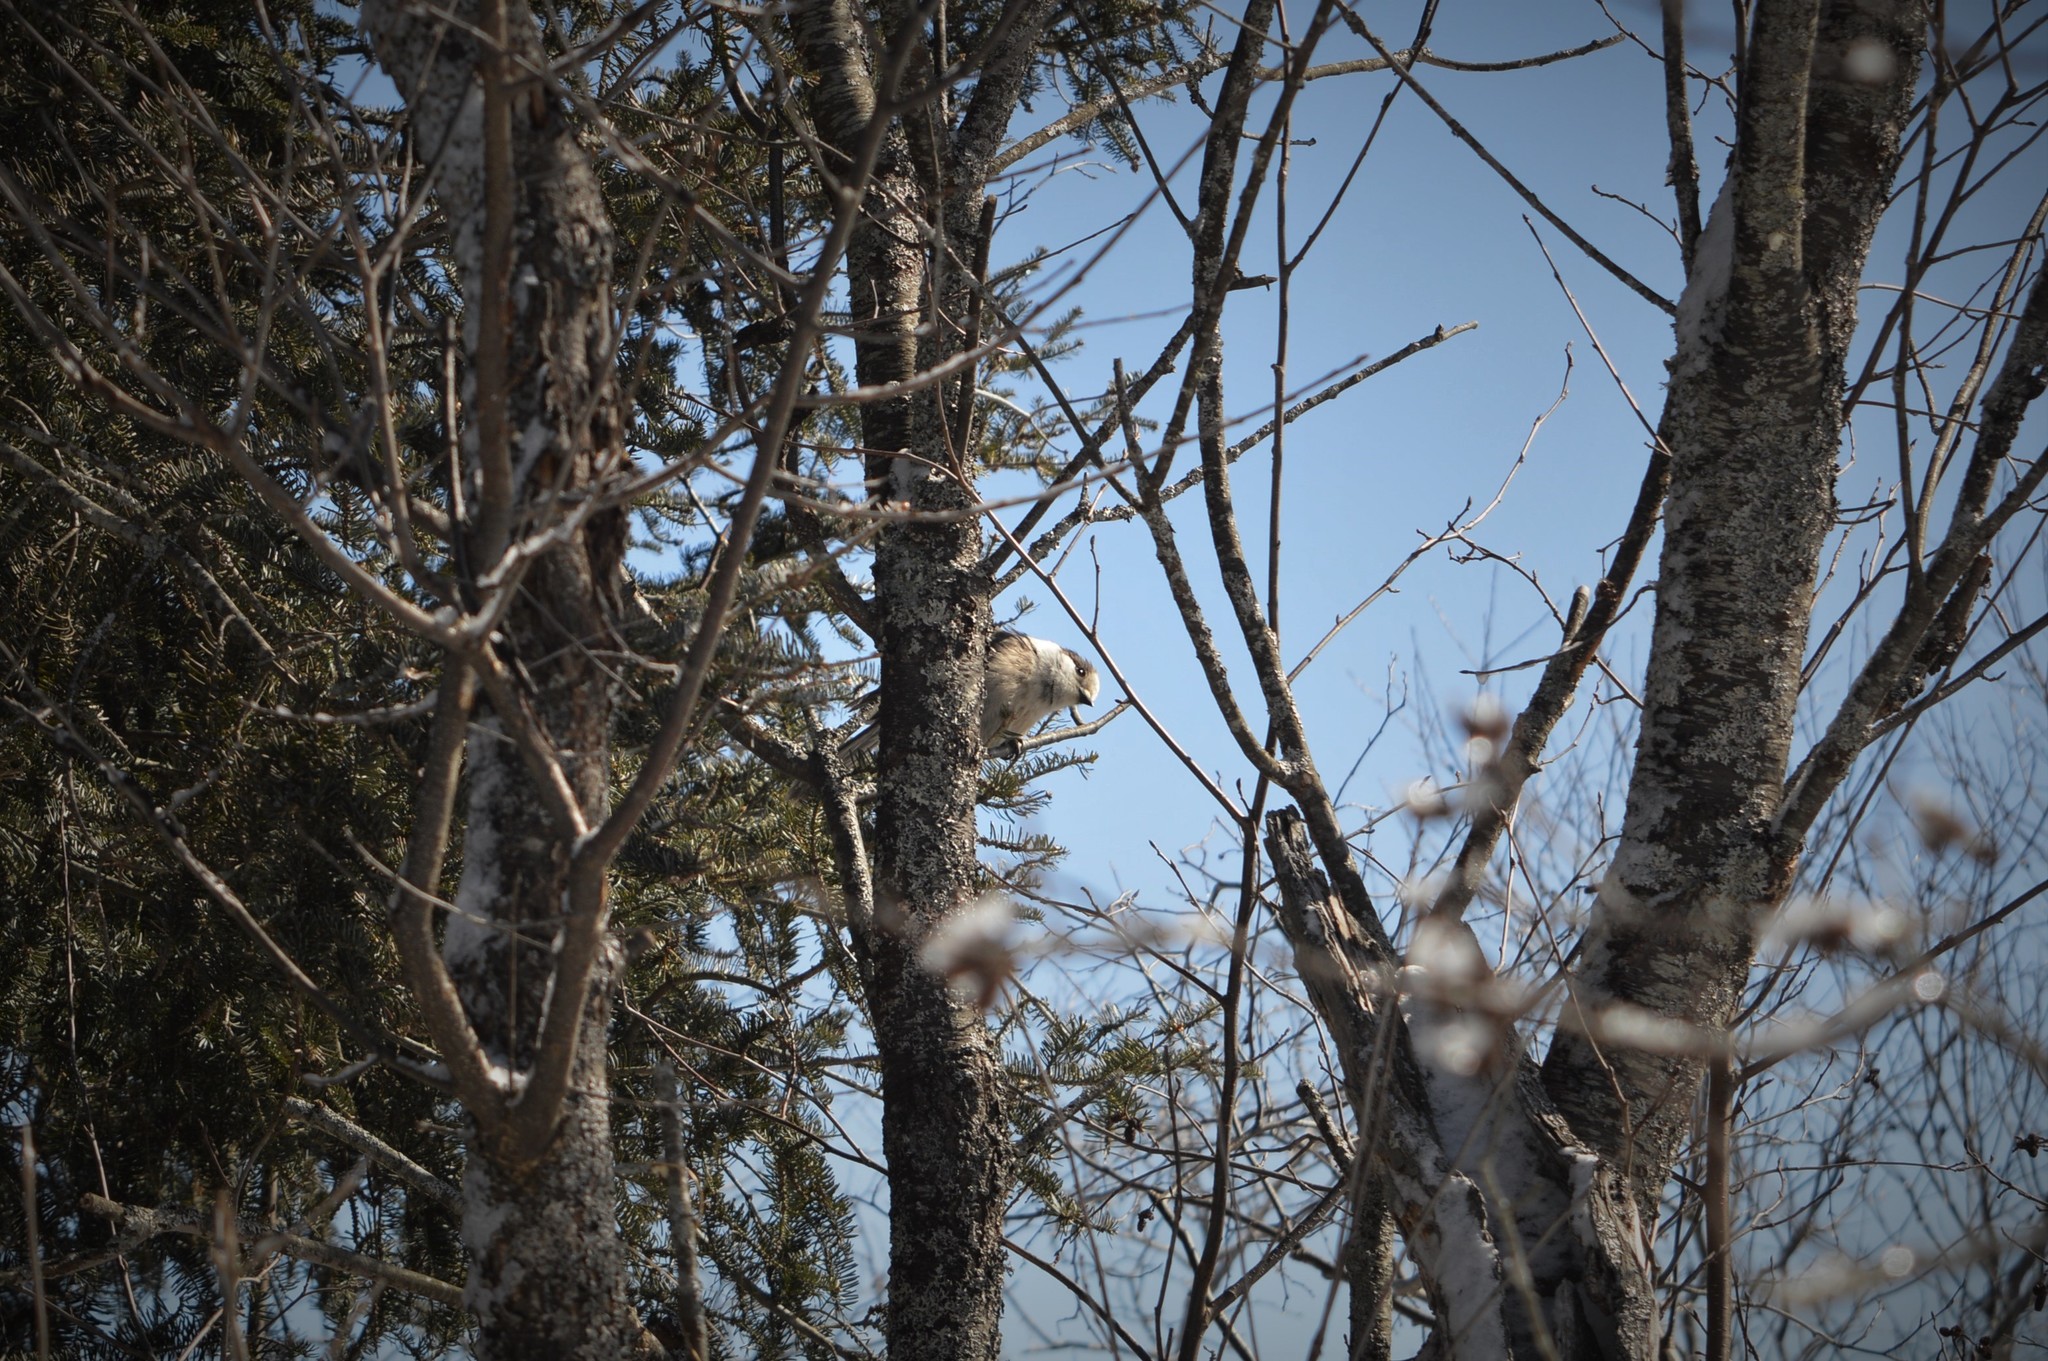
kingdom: Animalia
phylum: Chordata
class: Aves
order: Passeriformes
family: Corvidae
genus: Perisoreus
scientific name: Perisoreus canadensis
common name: Gray jay
